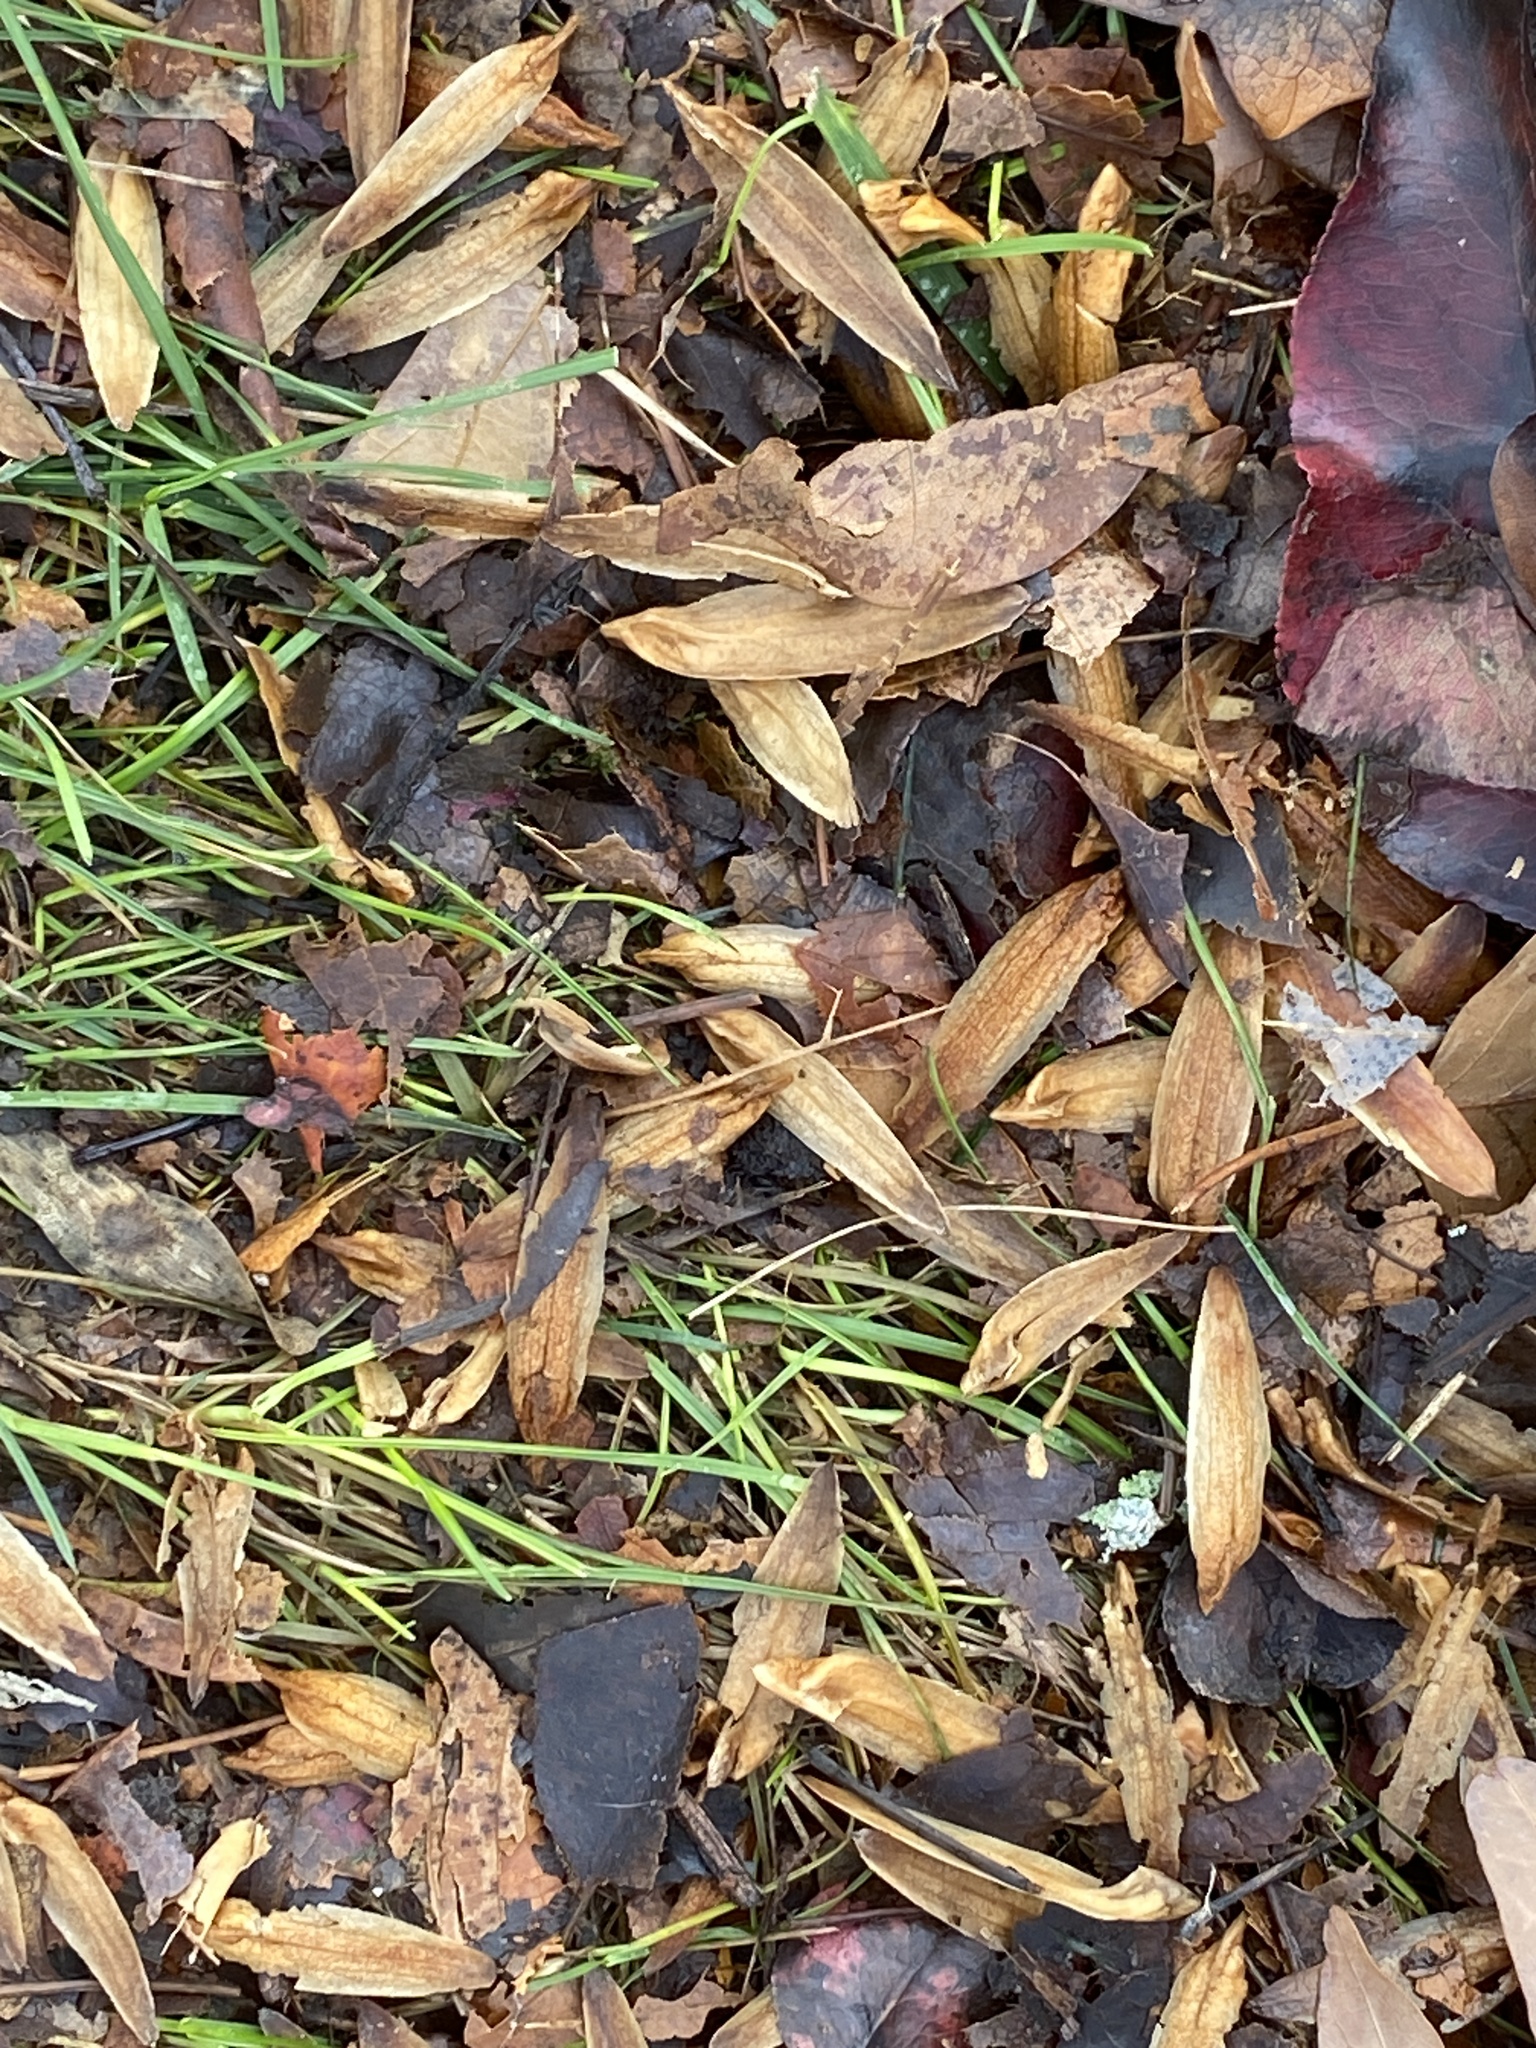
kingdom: Plantae
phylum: Tracheophyta
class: Magnoliopsida
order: Magnoliales
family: Magnoliaceae
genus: Liriodendron
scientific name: Liriodendron tulipifera
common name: Tulip tree
